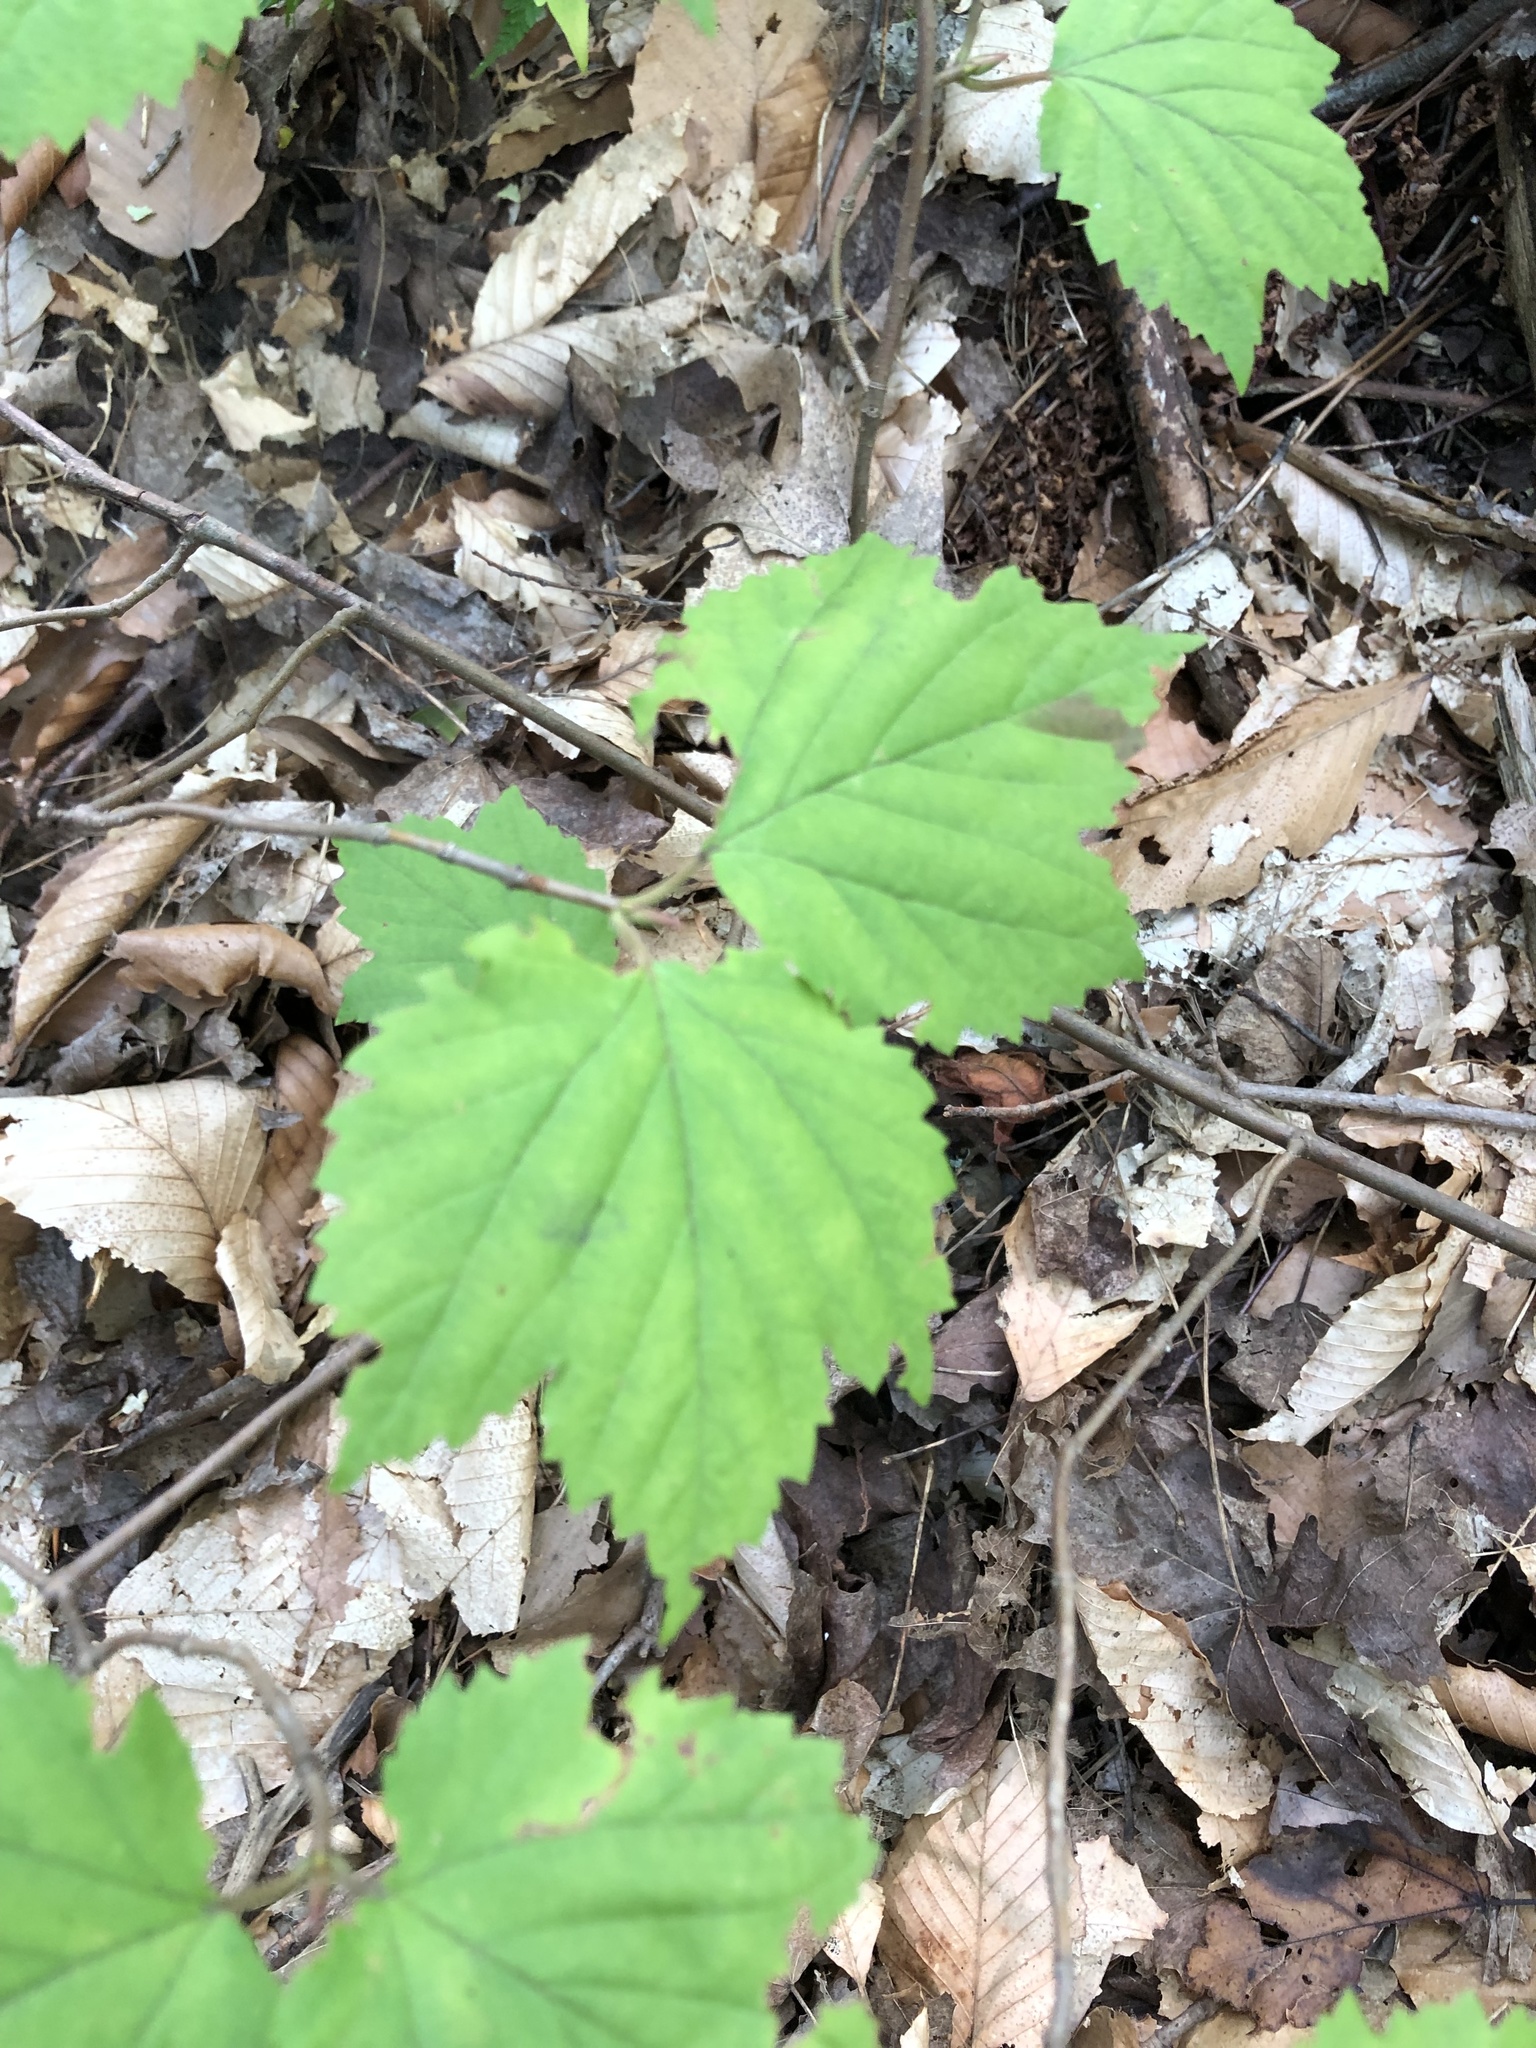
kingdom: Plantae
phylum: Tracheophyta
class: Magnoliopsida
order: Dipsacales
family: Viburnaceae
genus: Viburnum
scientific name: Viburnum acerifolium
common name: Dockmackie
